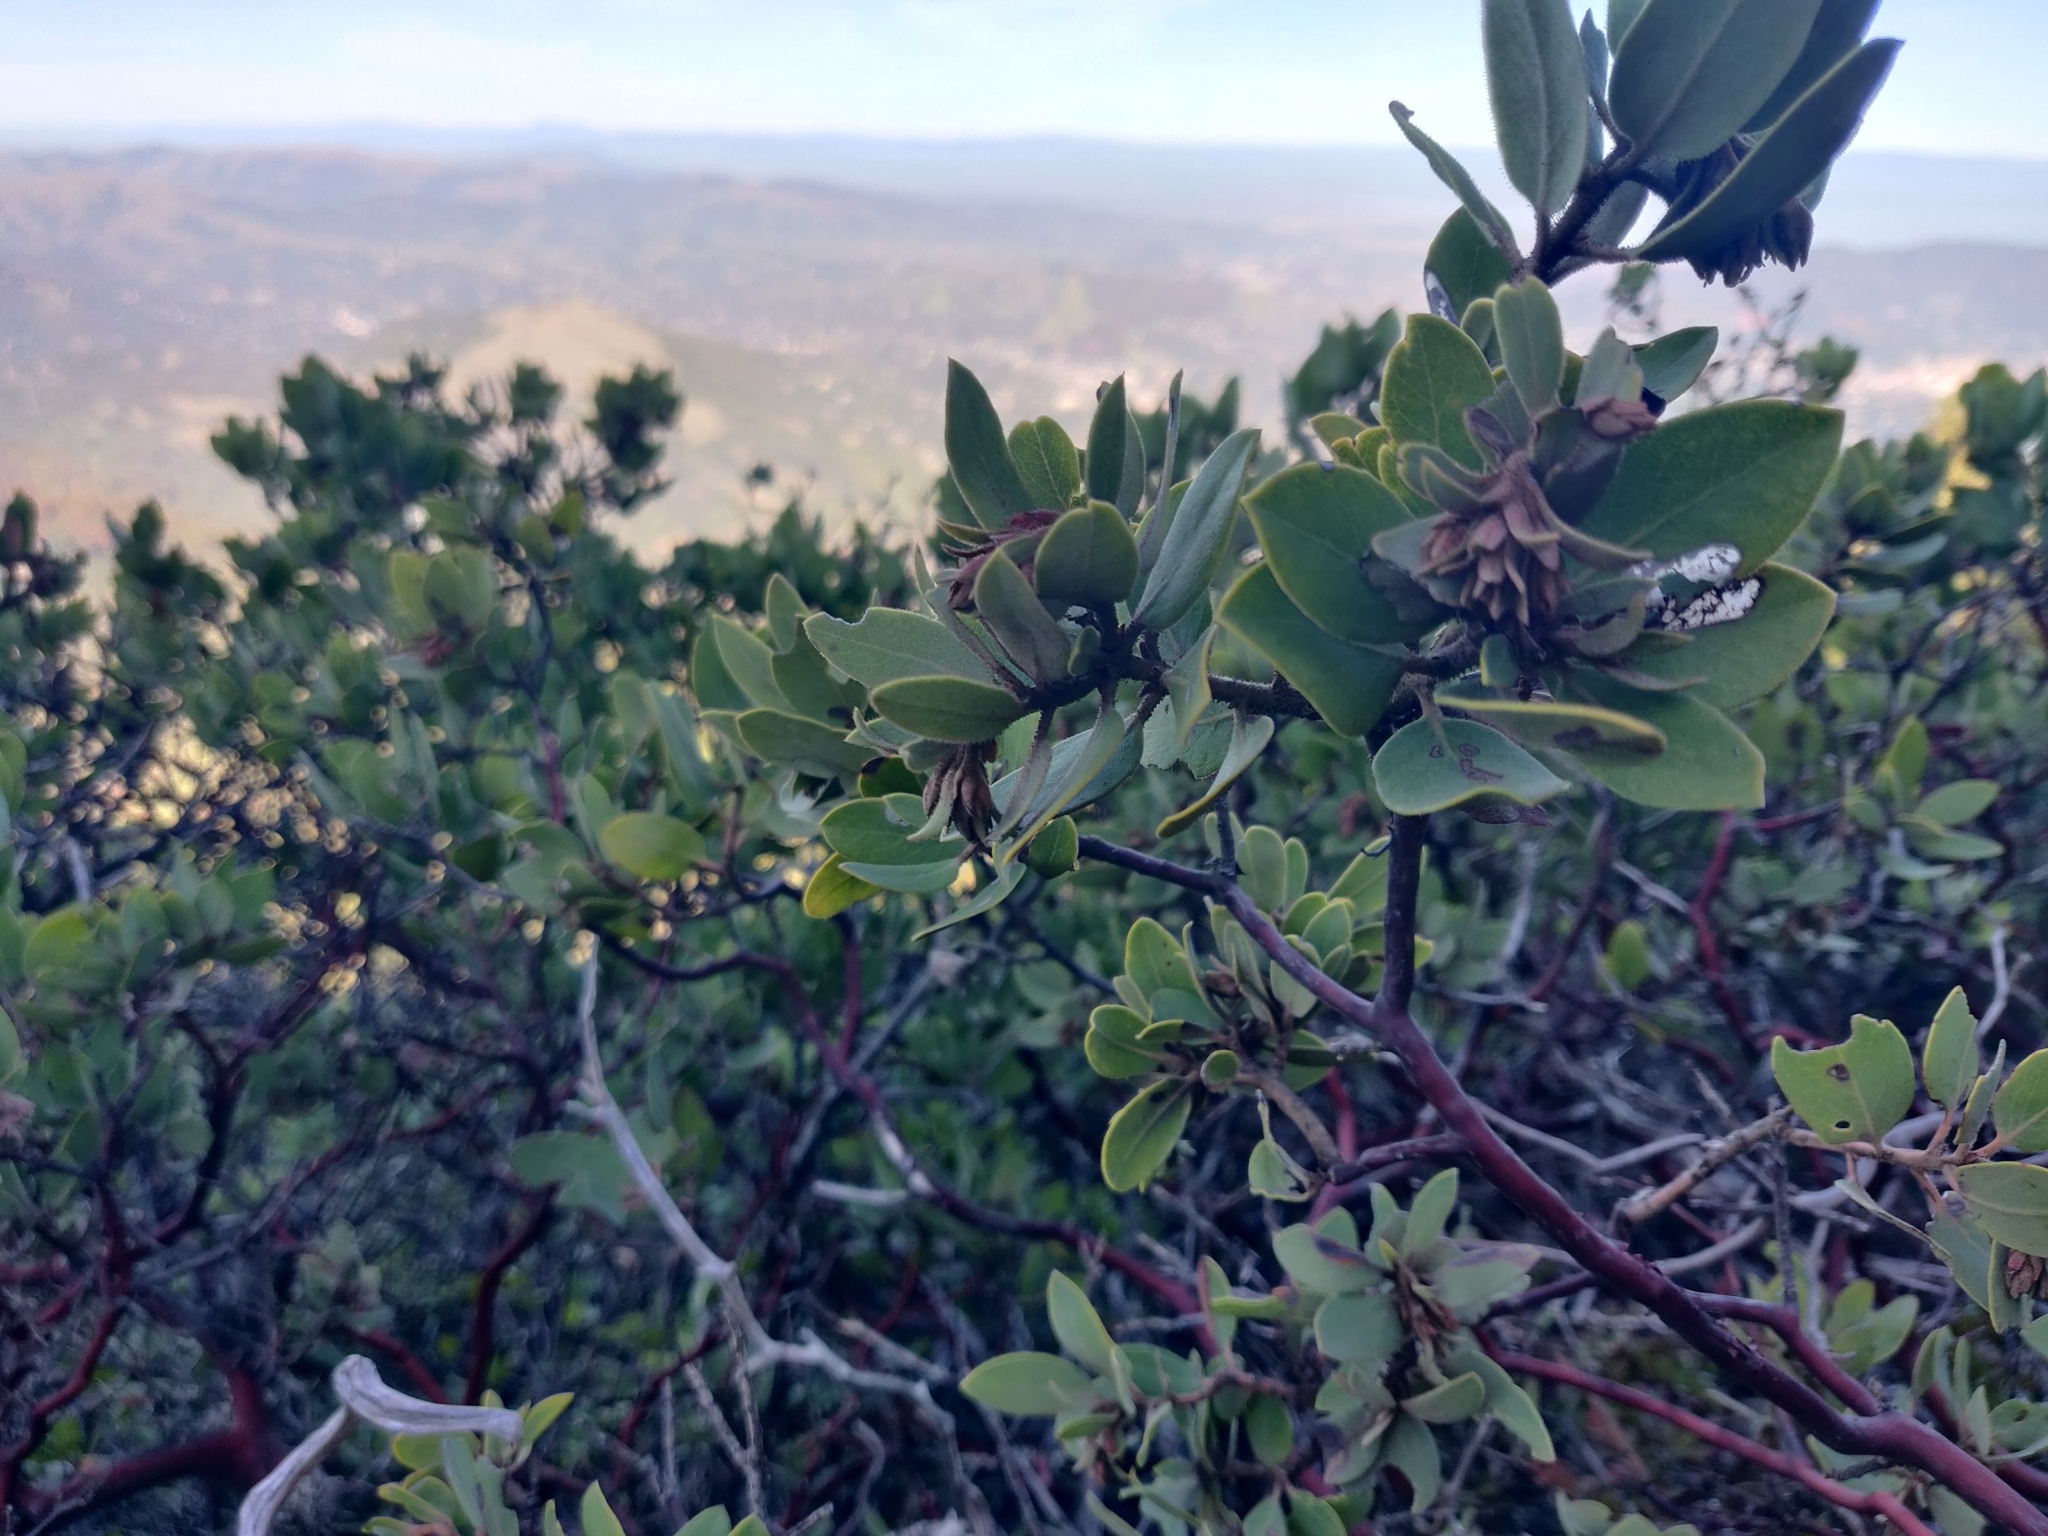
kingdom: Plantae
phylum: Tracheophyta
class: Magnoliopsida
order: Ericales
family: Ericaceae
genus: Arctostaphylos
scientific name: Arctostaphylos glandulosa
